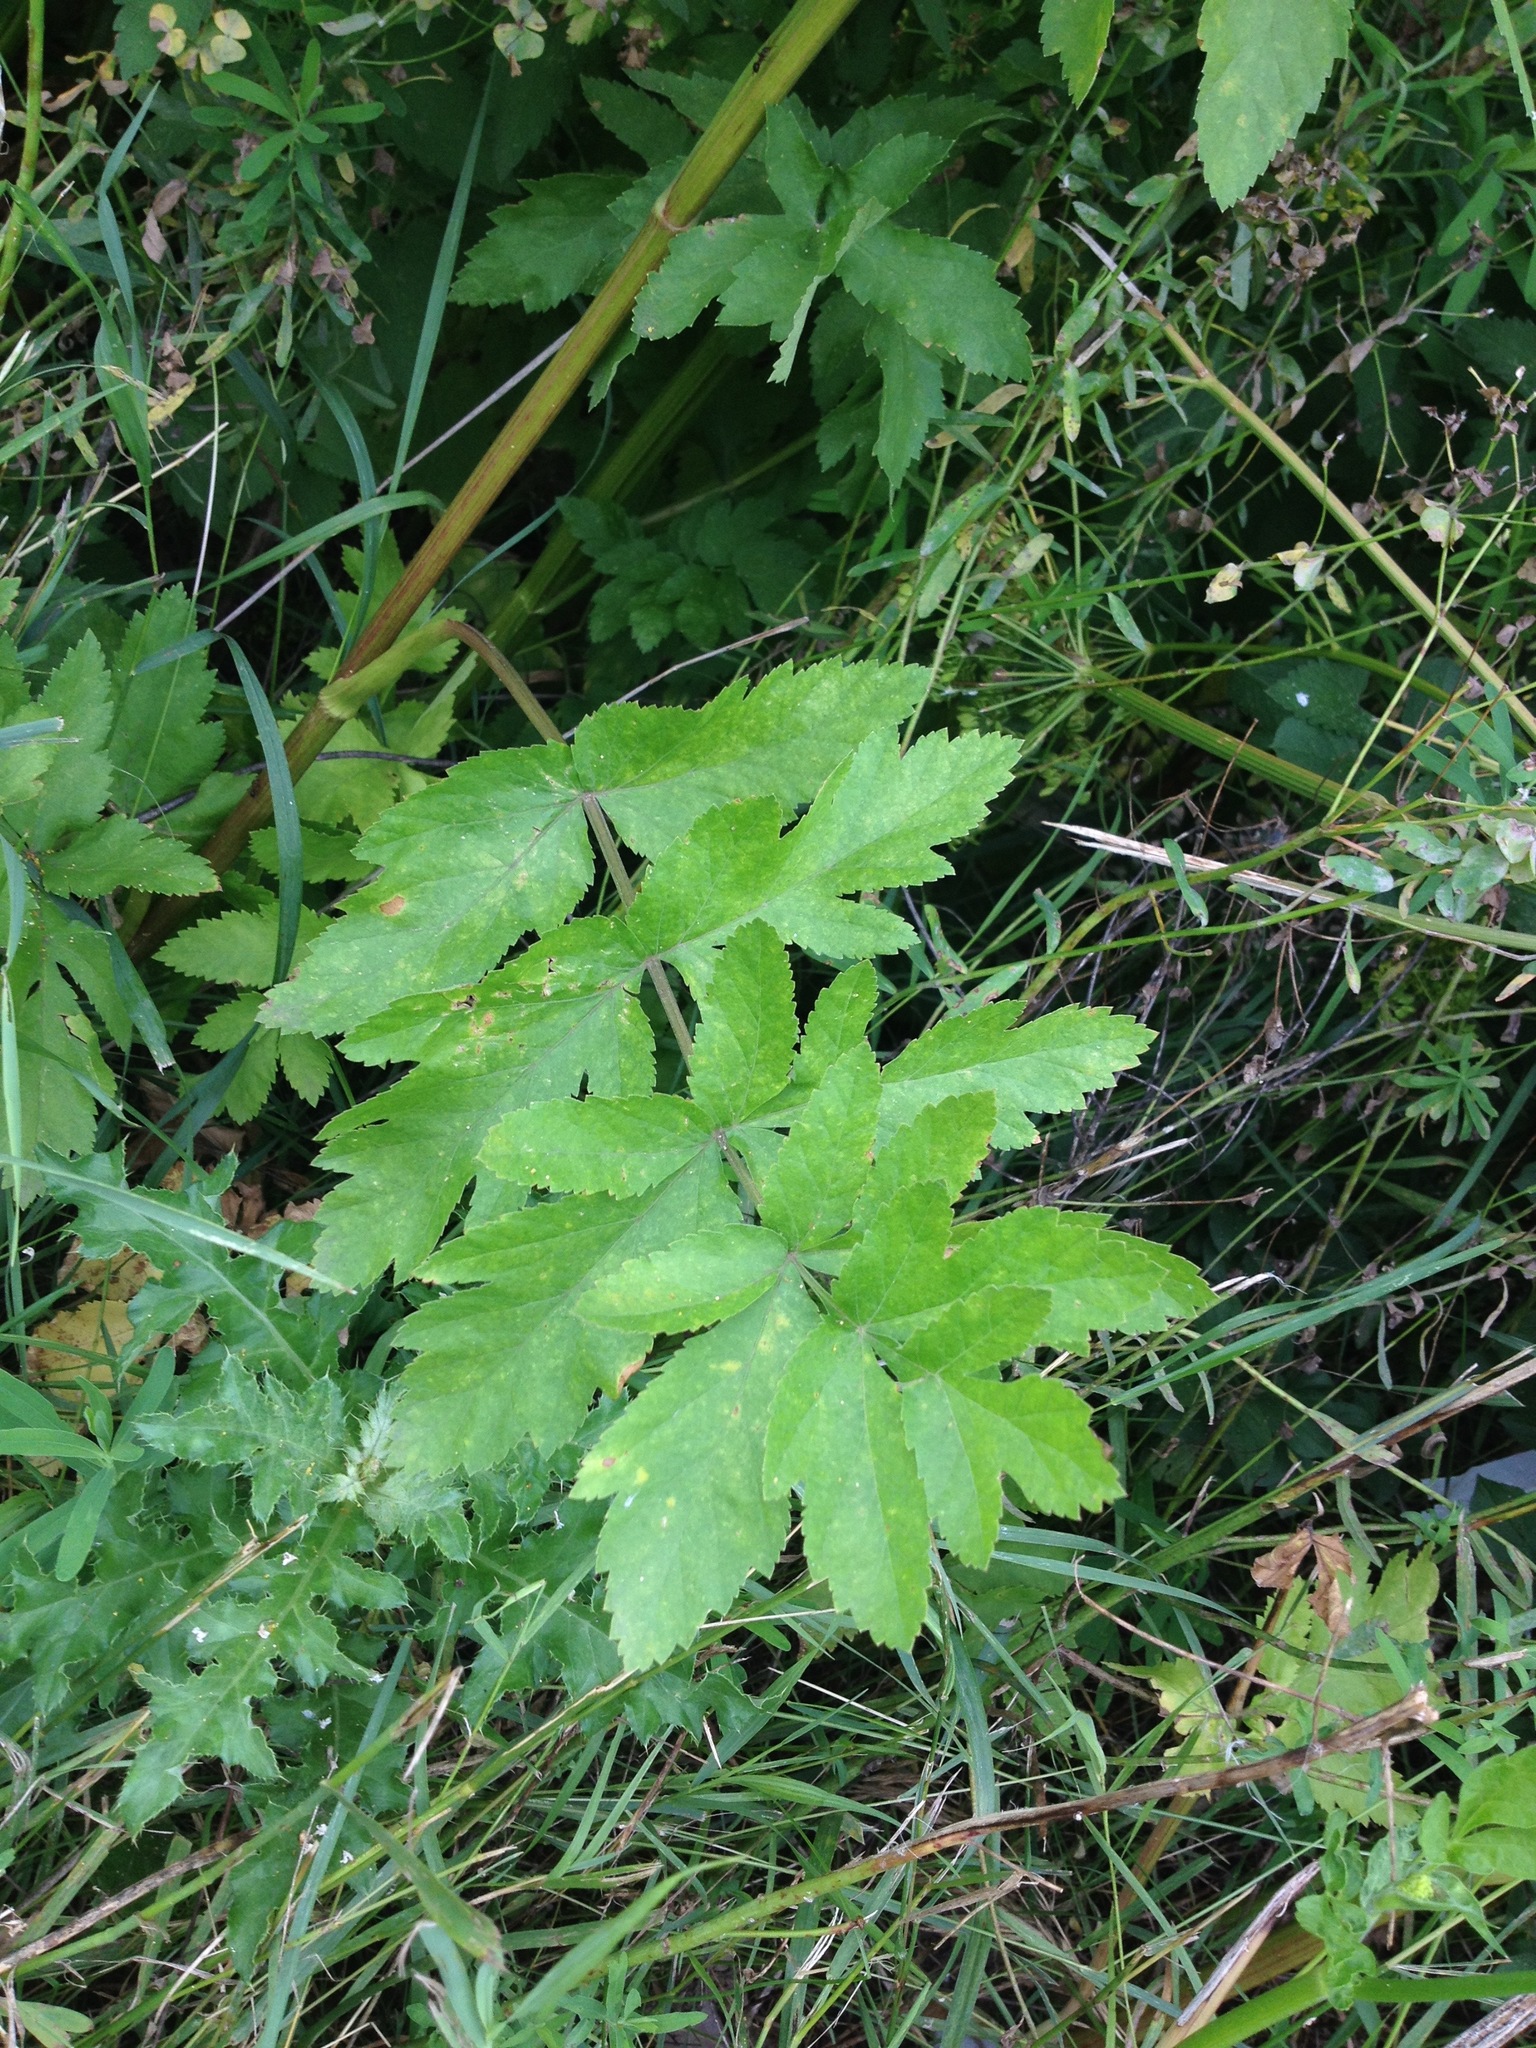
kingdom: Plantae
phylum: Tracheophyta
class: Magnoliopsida
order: Apiales
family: Apiaceae
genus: Pastinaca
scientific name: Pastinaca sativa
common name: Wild parsnip
